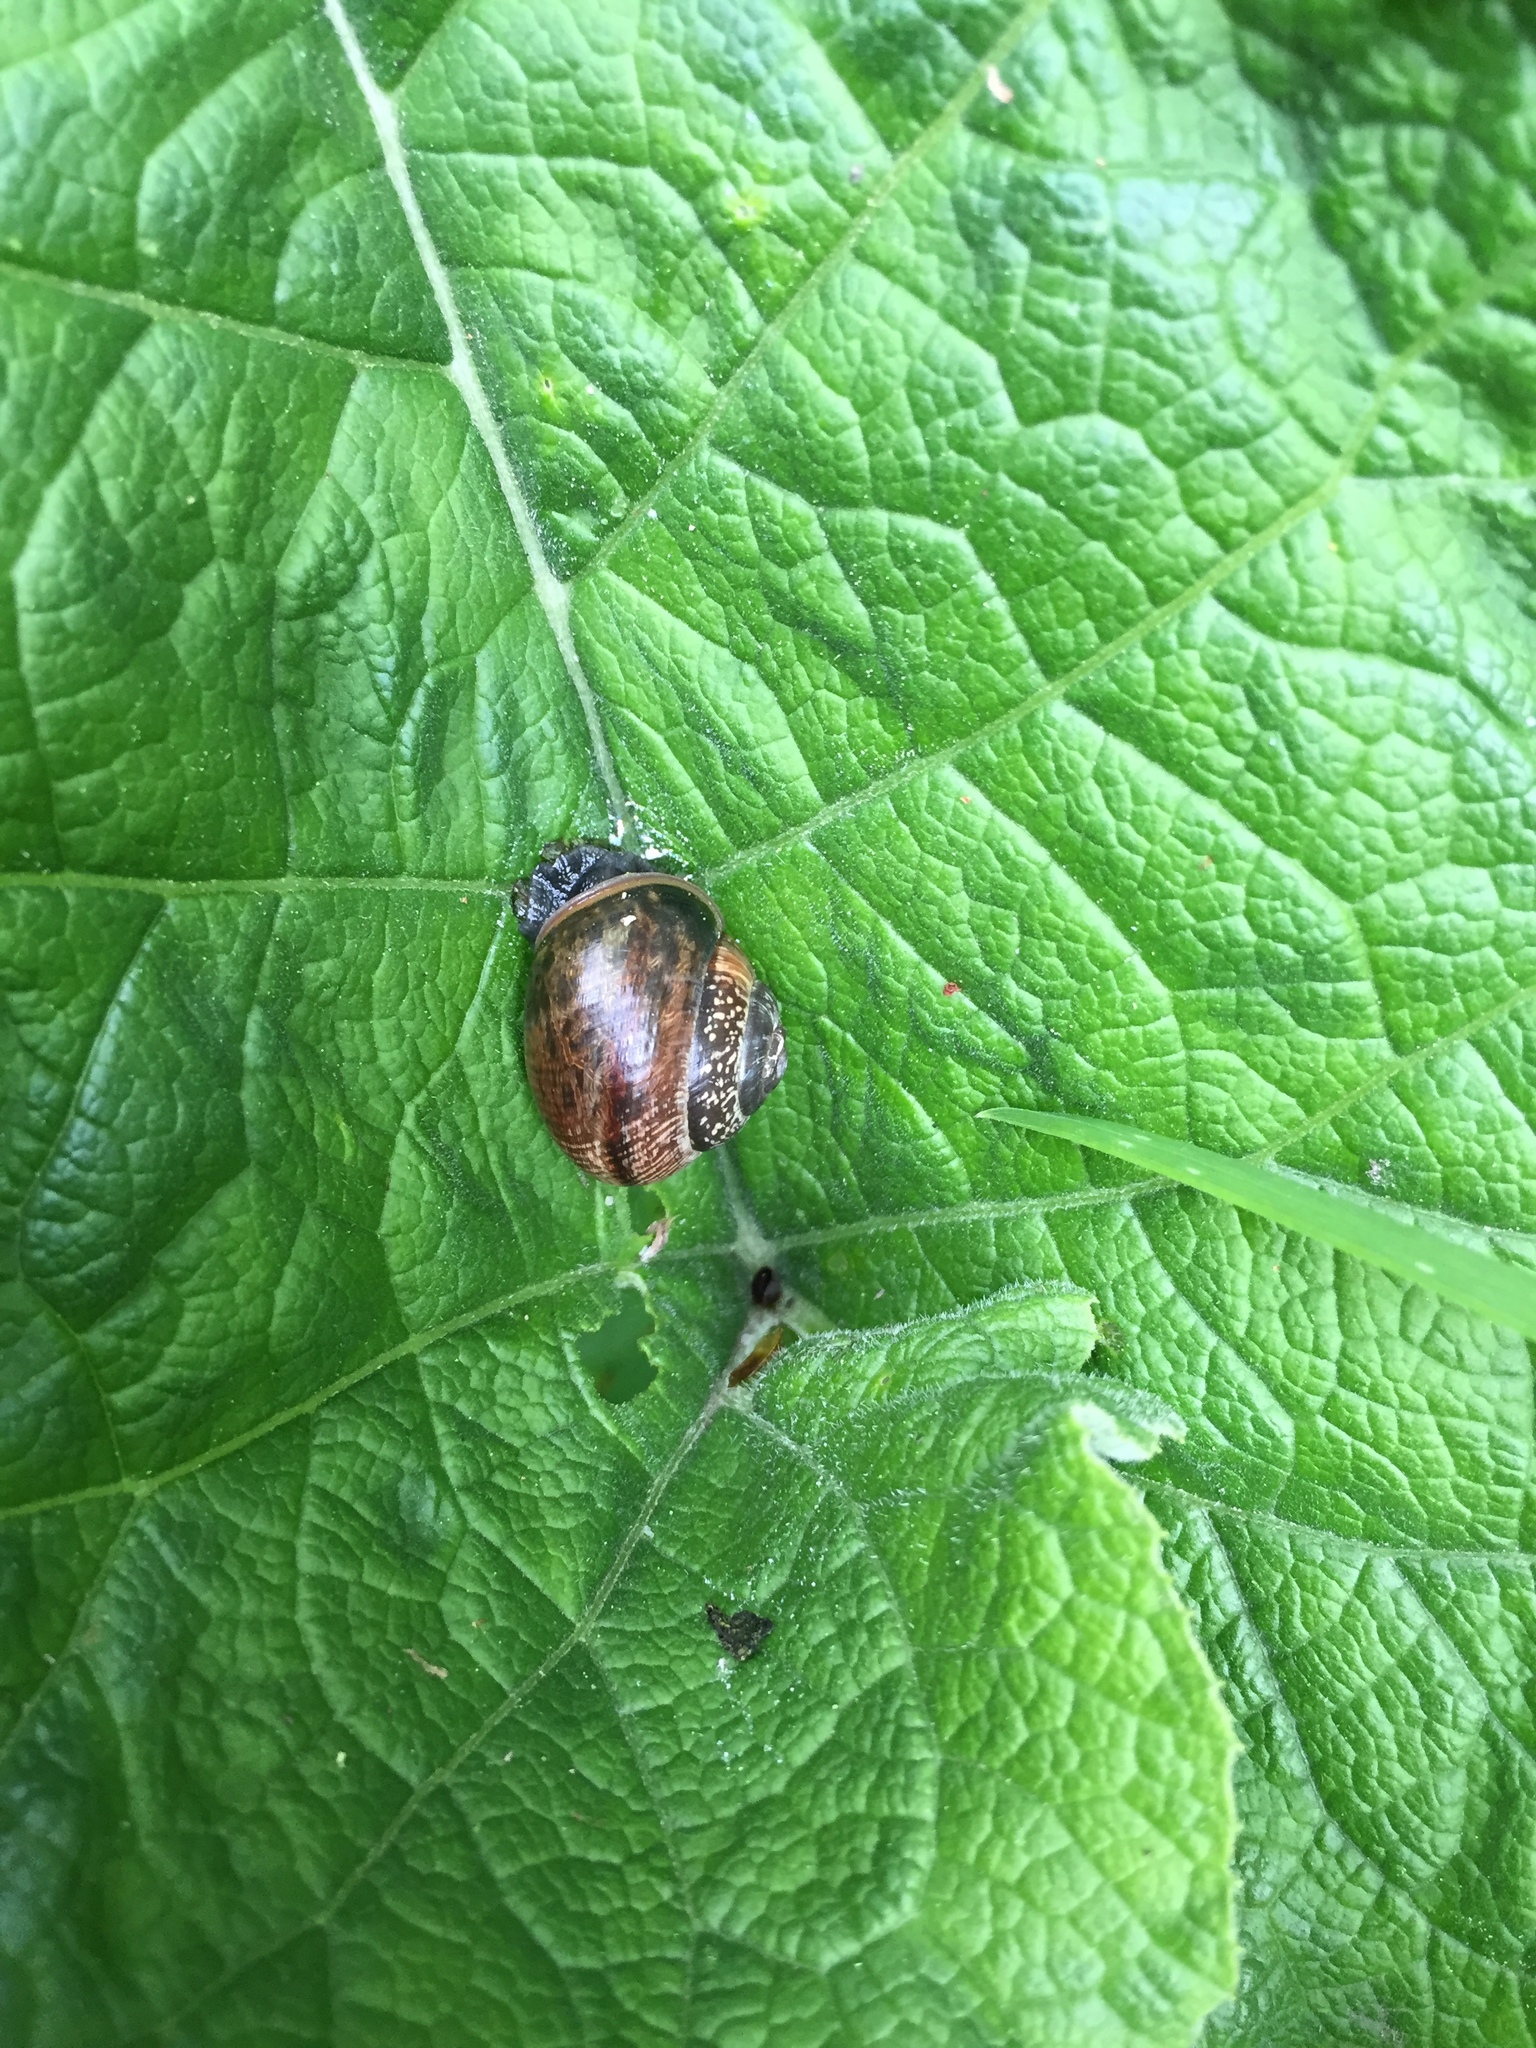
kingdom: Animalia
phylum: Mollusca
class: Gastropoda
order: Stylommatophora
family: Helicidae
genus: Arianta
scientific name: Arianta arbustorum
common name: Copse snail
